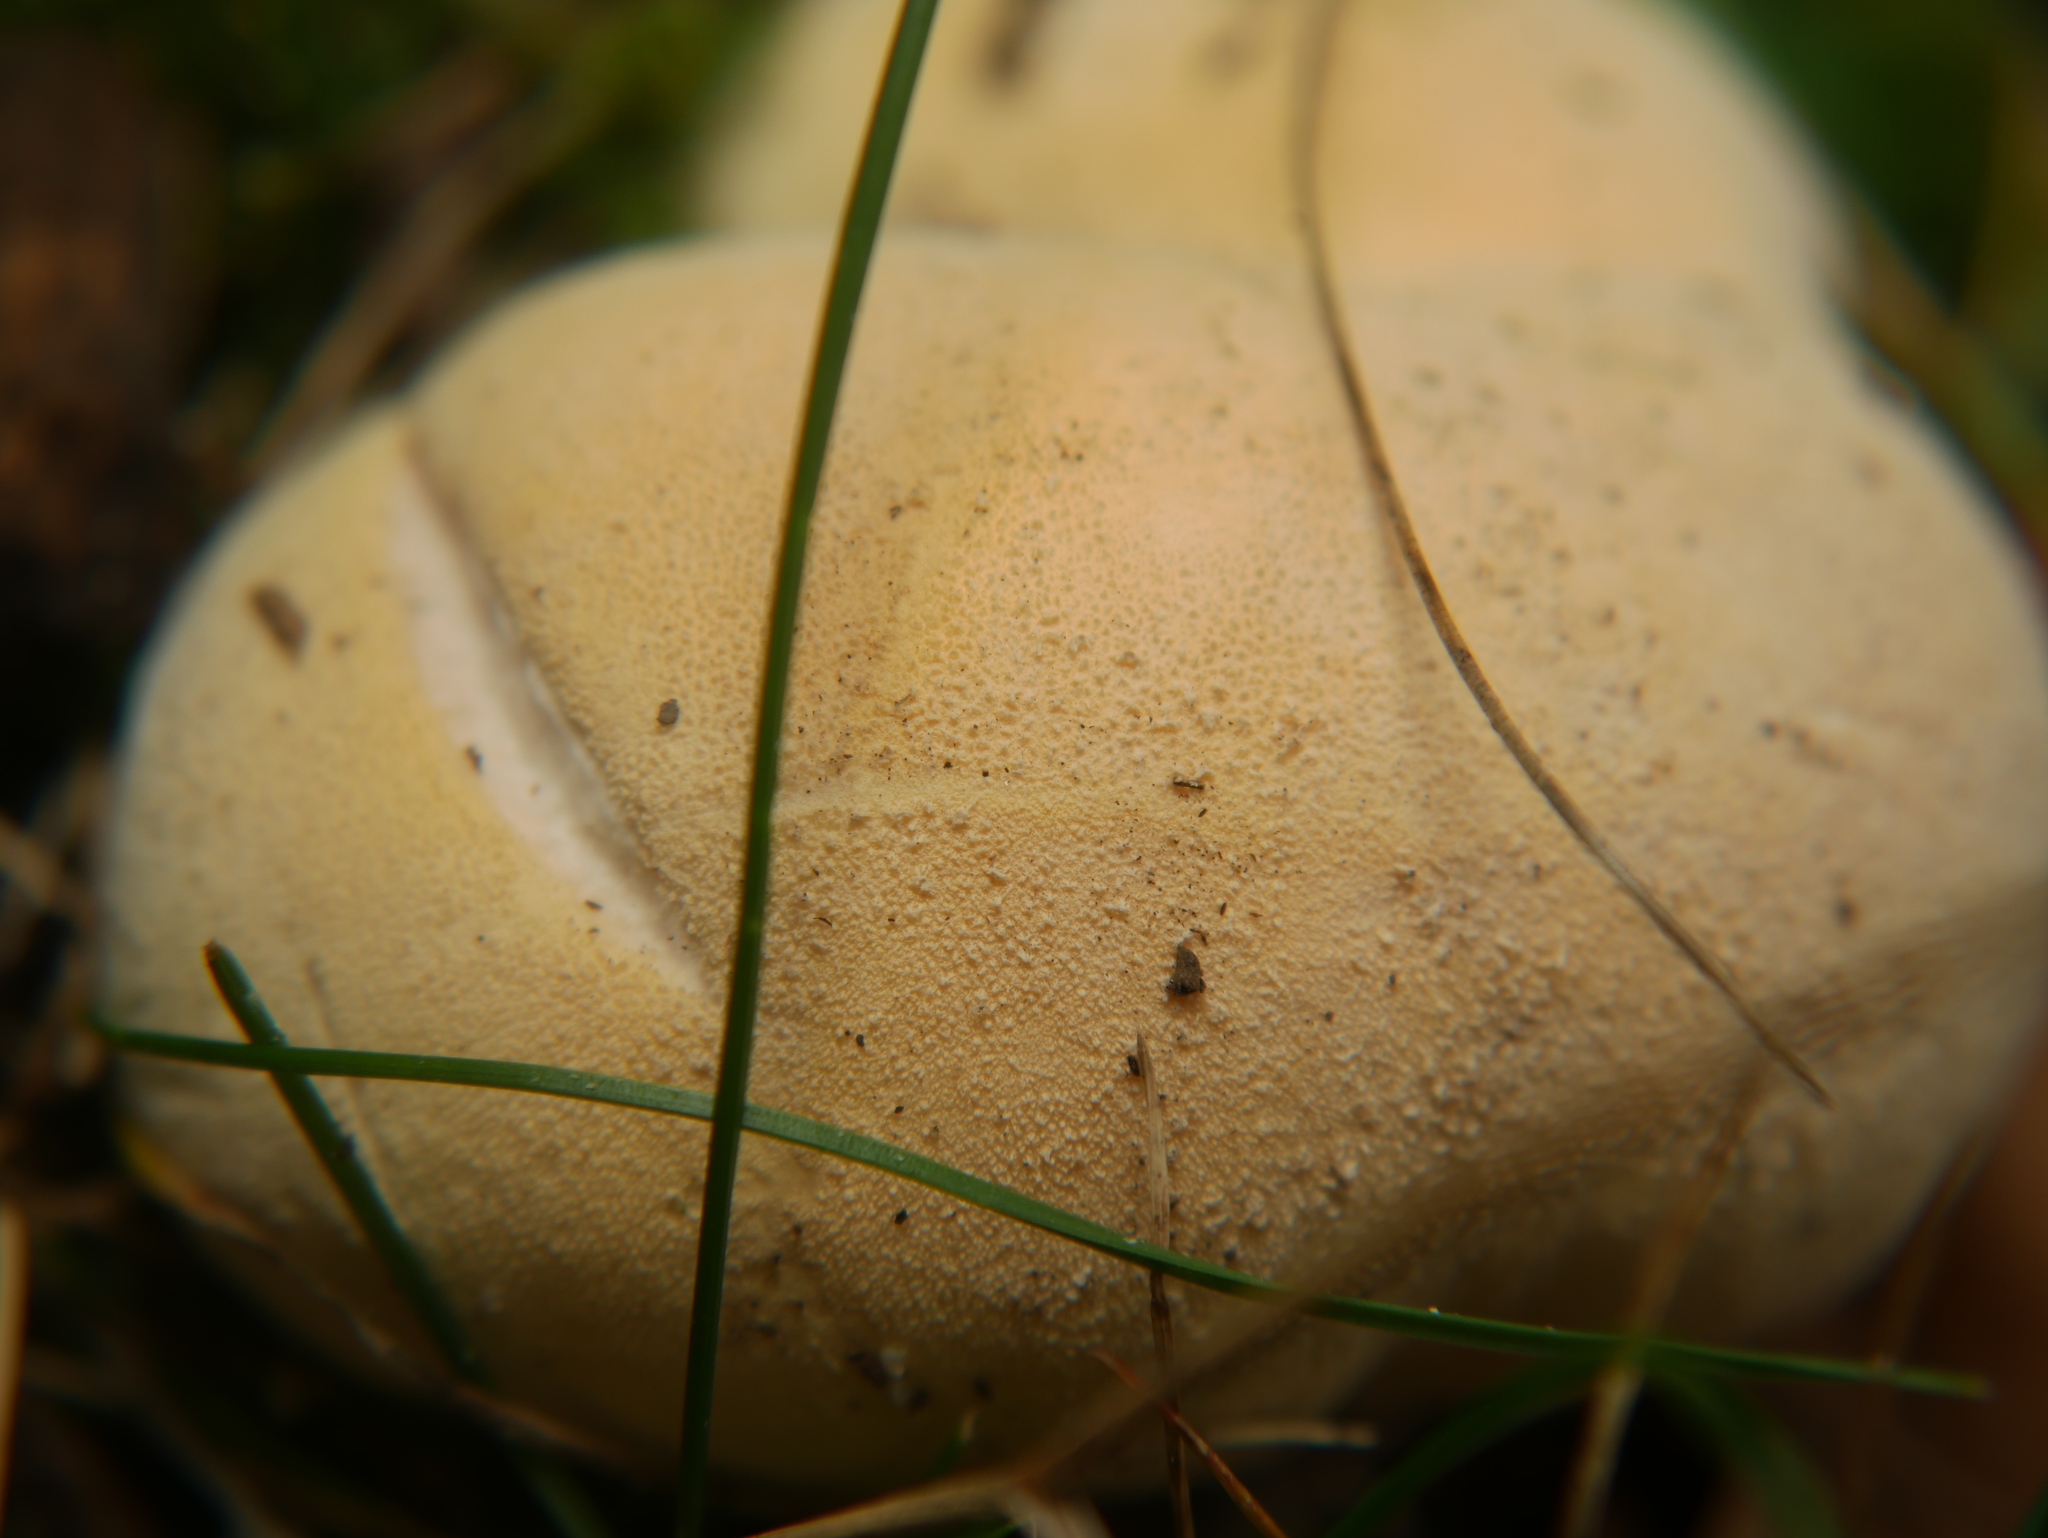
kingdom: Fungi
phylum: Basidiomycota
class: Agaricomycetes
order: Agaricales
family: Lycoperdaceae
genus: Lycoperdon
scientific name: Lycoperdon perlatum
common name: Common puffball
